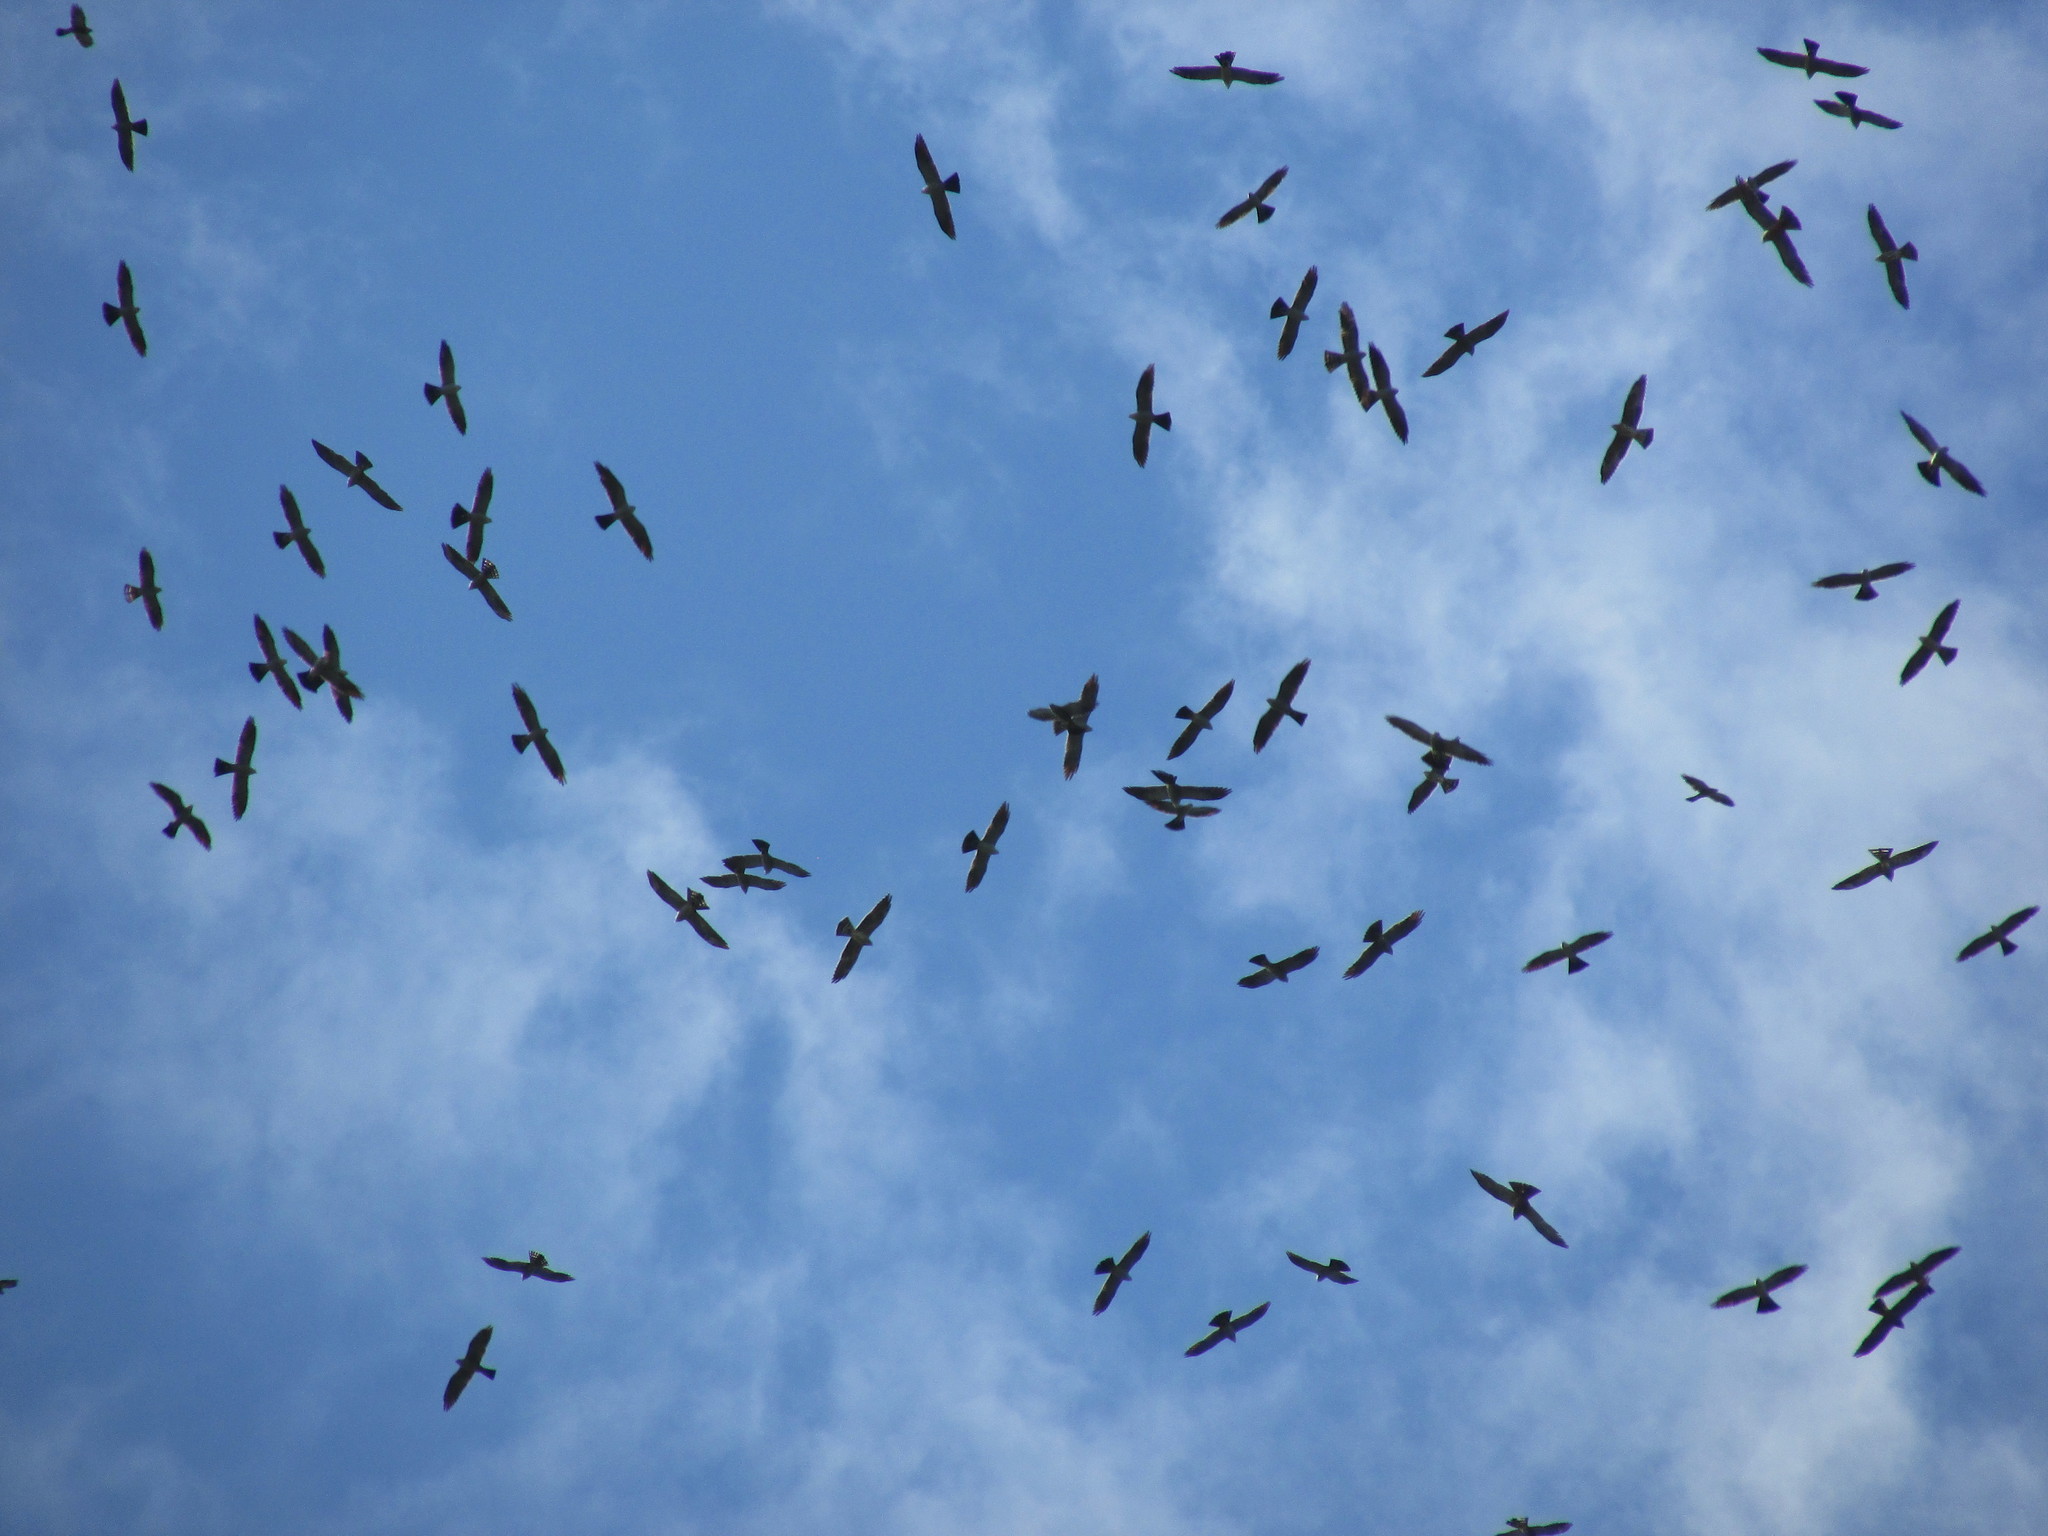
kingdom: Animalia
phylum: Chordata
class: Aves
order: Accipitriformes
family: Accipitridae
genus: Ictinia
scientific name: Ictinia plumbea
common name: Plumbeous kite
